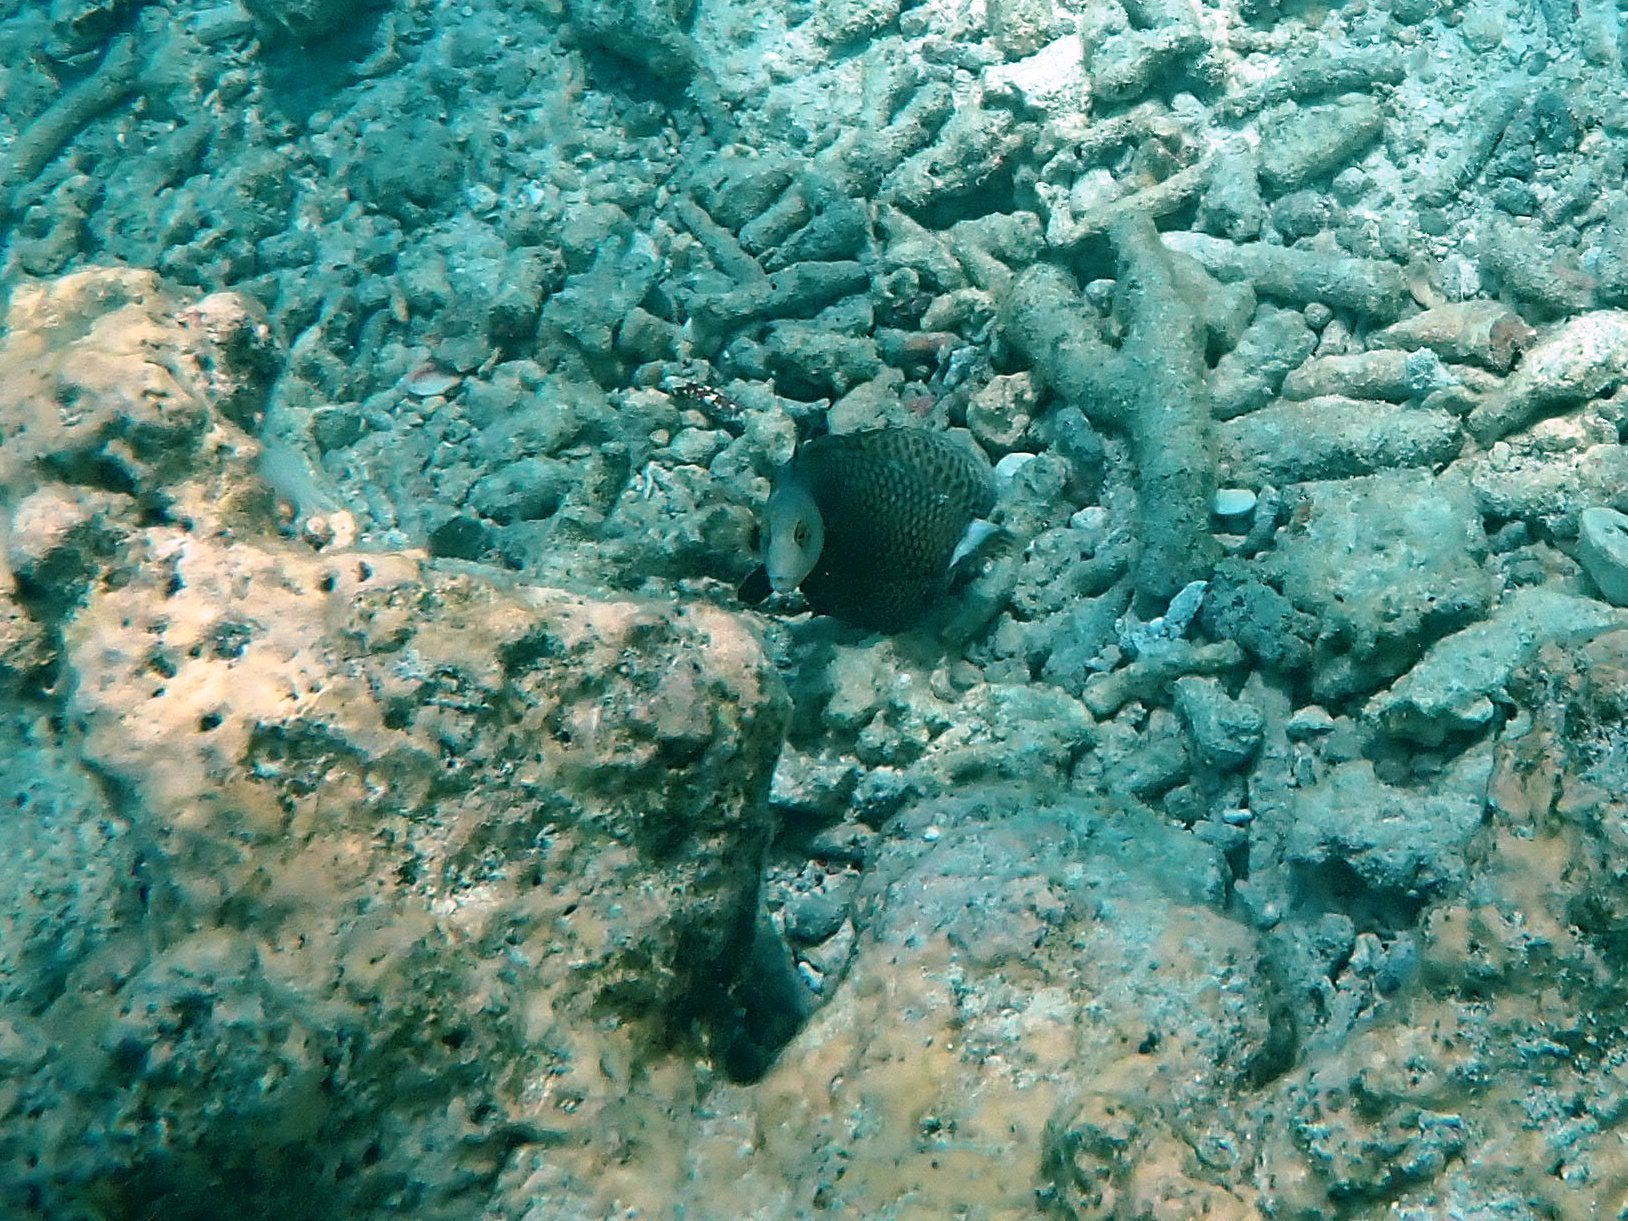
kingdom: Animalia
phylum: Chordata
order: Perciformes
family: Labridae
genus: Novaculichthys
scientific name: Novaculichthys taeniourus
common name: Rockmover wrasse
